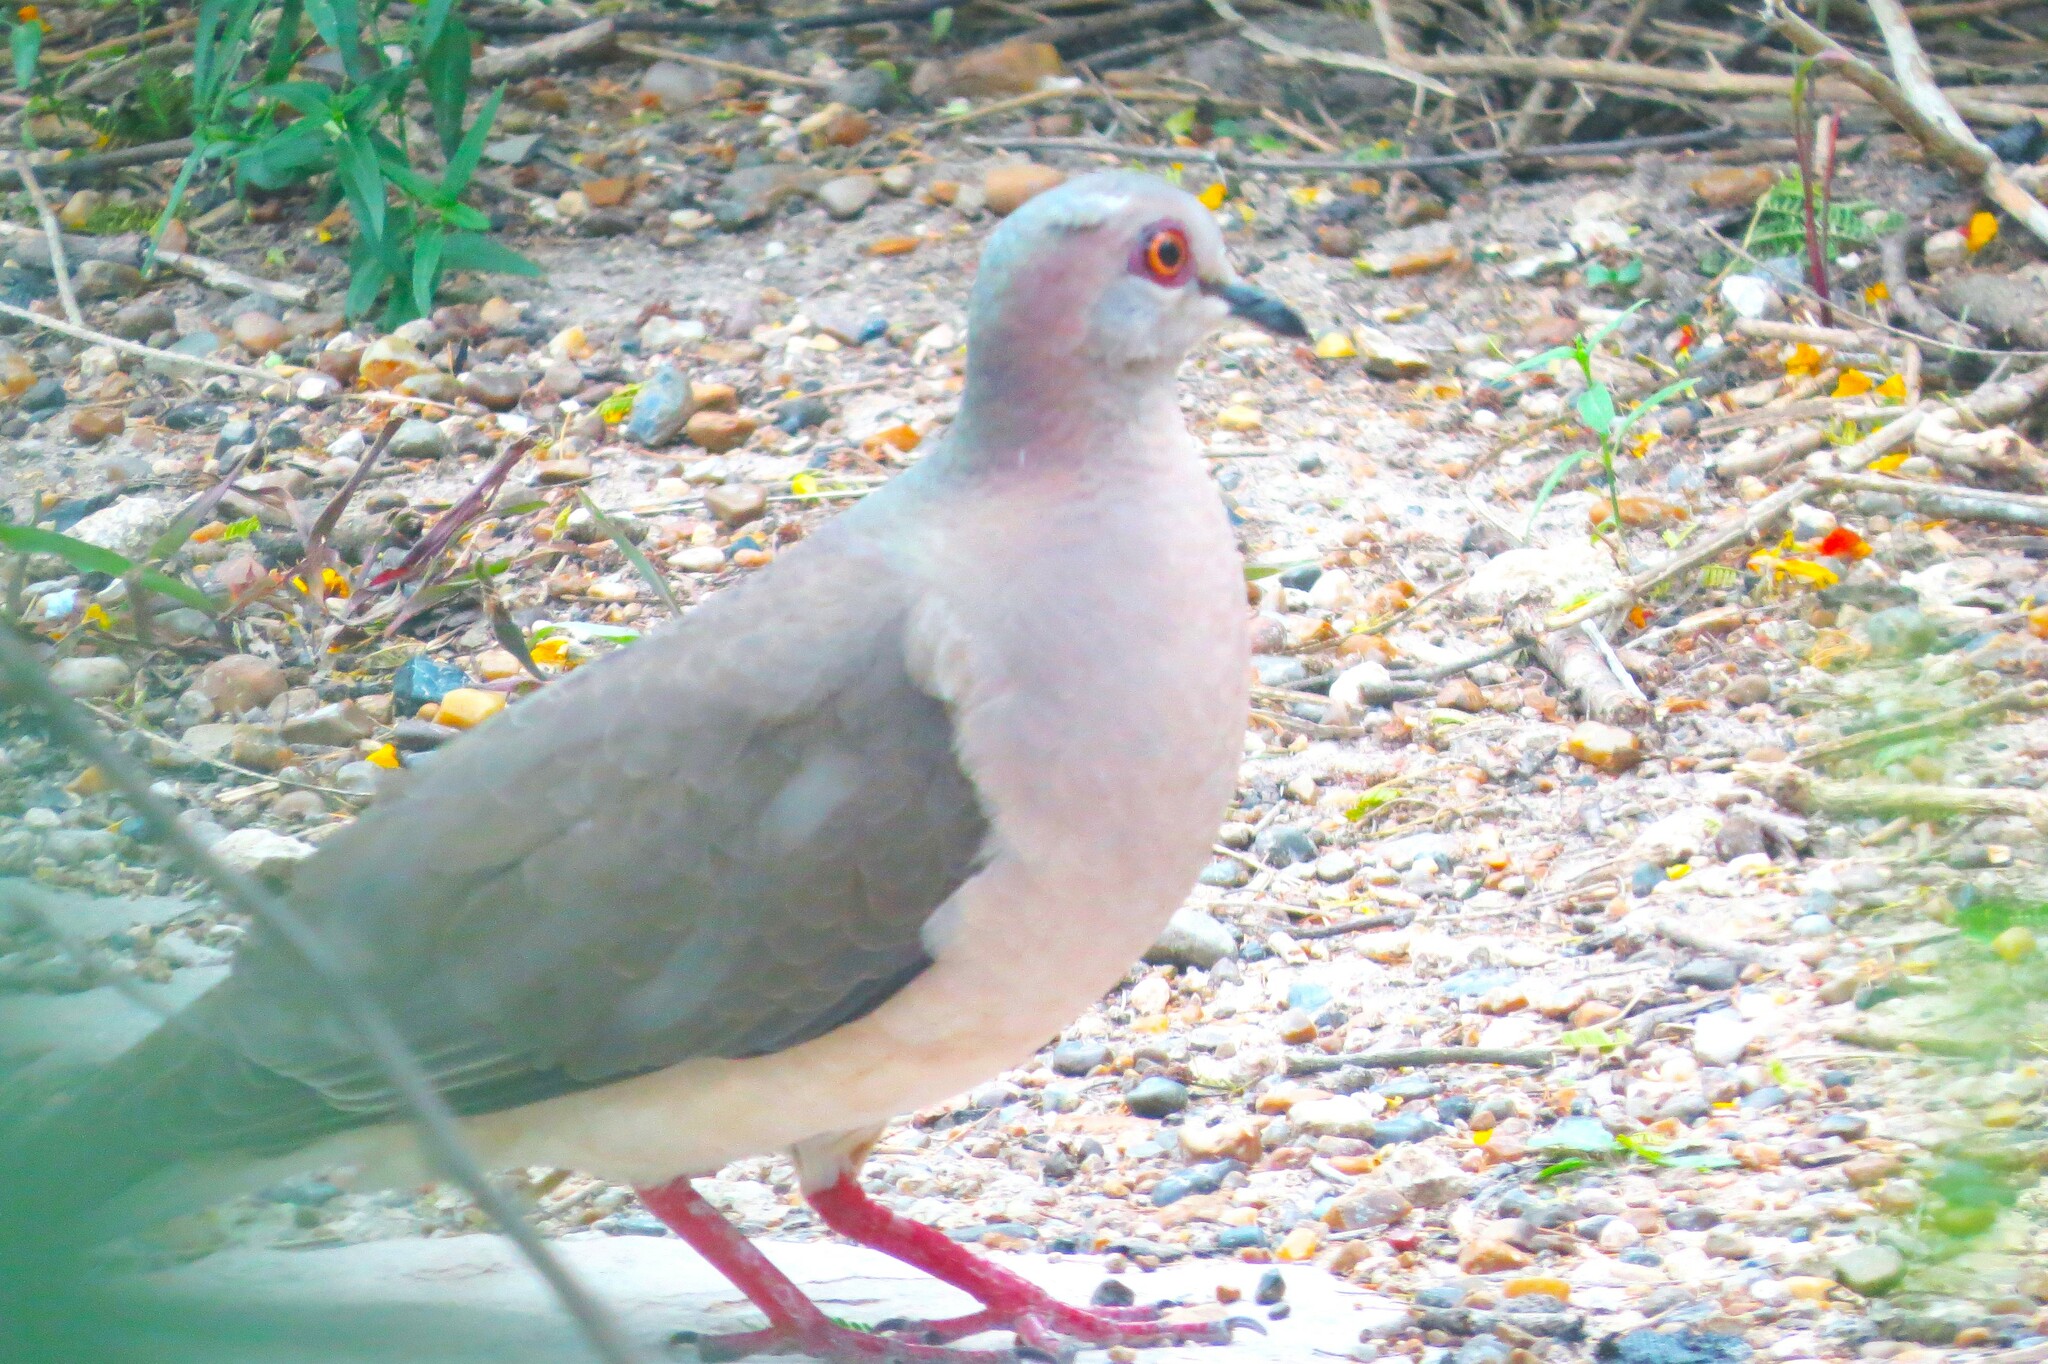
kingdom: Animalia
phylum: Chordata
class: Aves
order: Columbiformes
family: Columbidae
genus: Leptotila
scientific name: Leptotila verreauxi
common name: White-tipped dove
